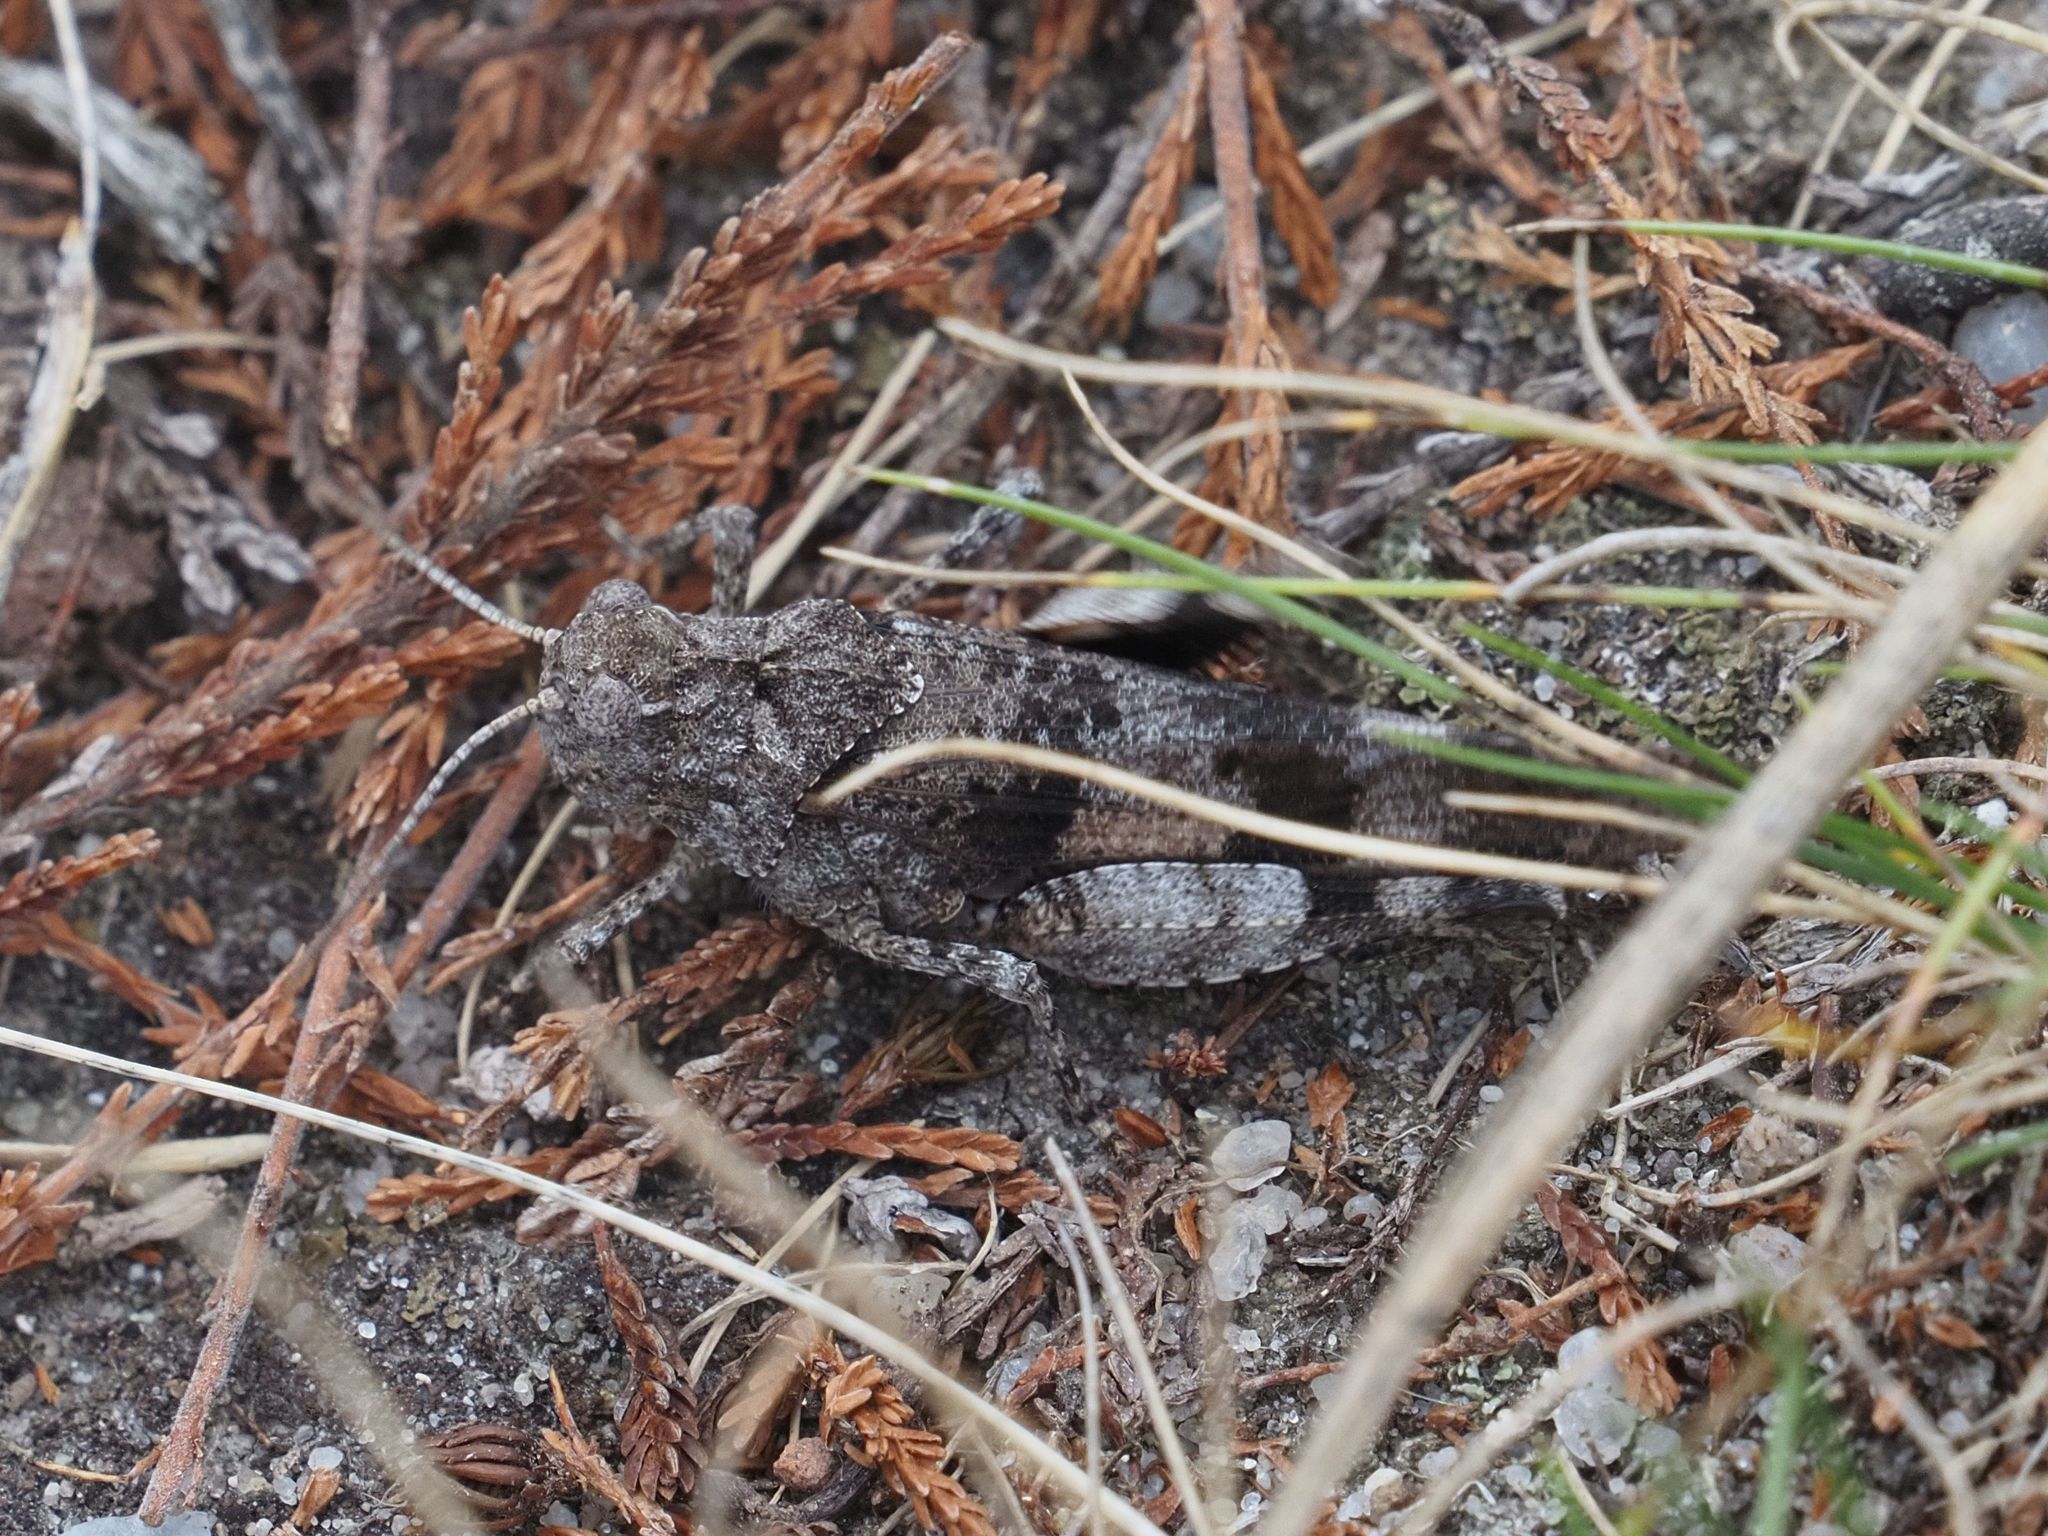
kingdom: Animalia
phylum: Arthropoda
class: Insecta
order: Orthoptera
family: Acrididae
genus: Oedipoda
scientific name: Oedipoda caerulescens
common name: Blue-winged grasshopper
